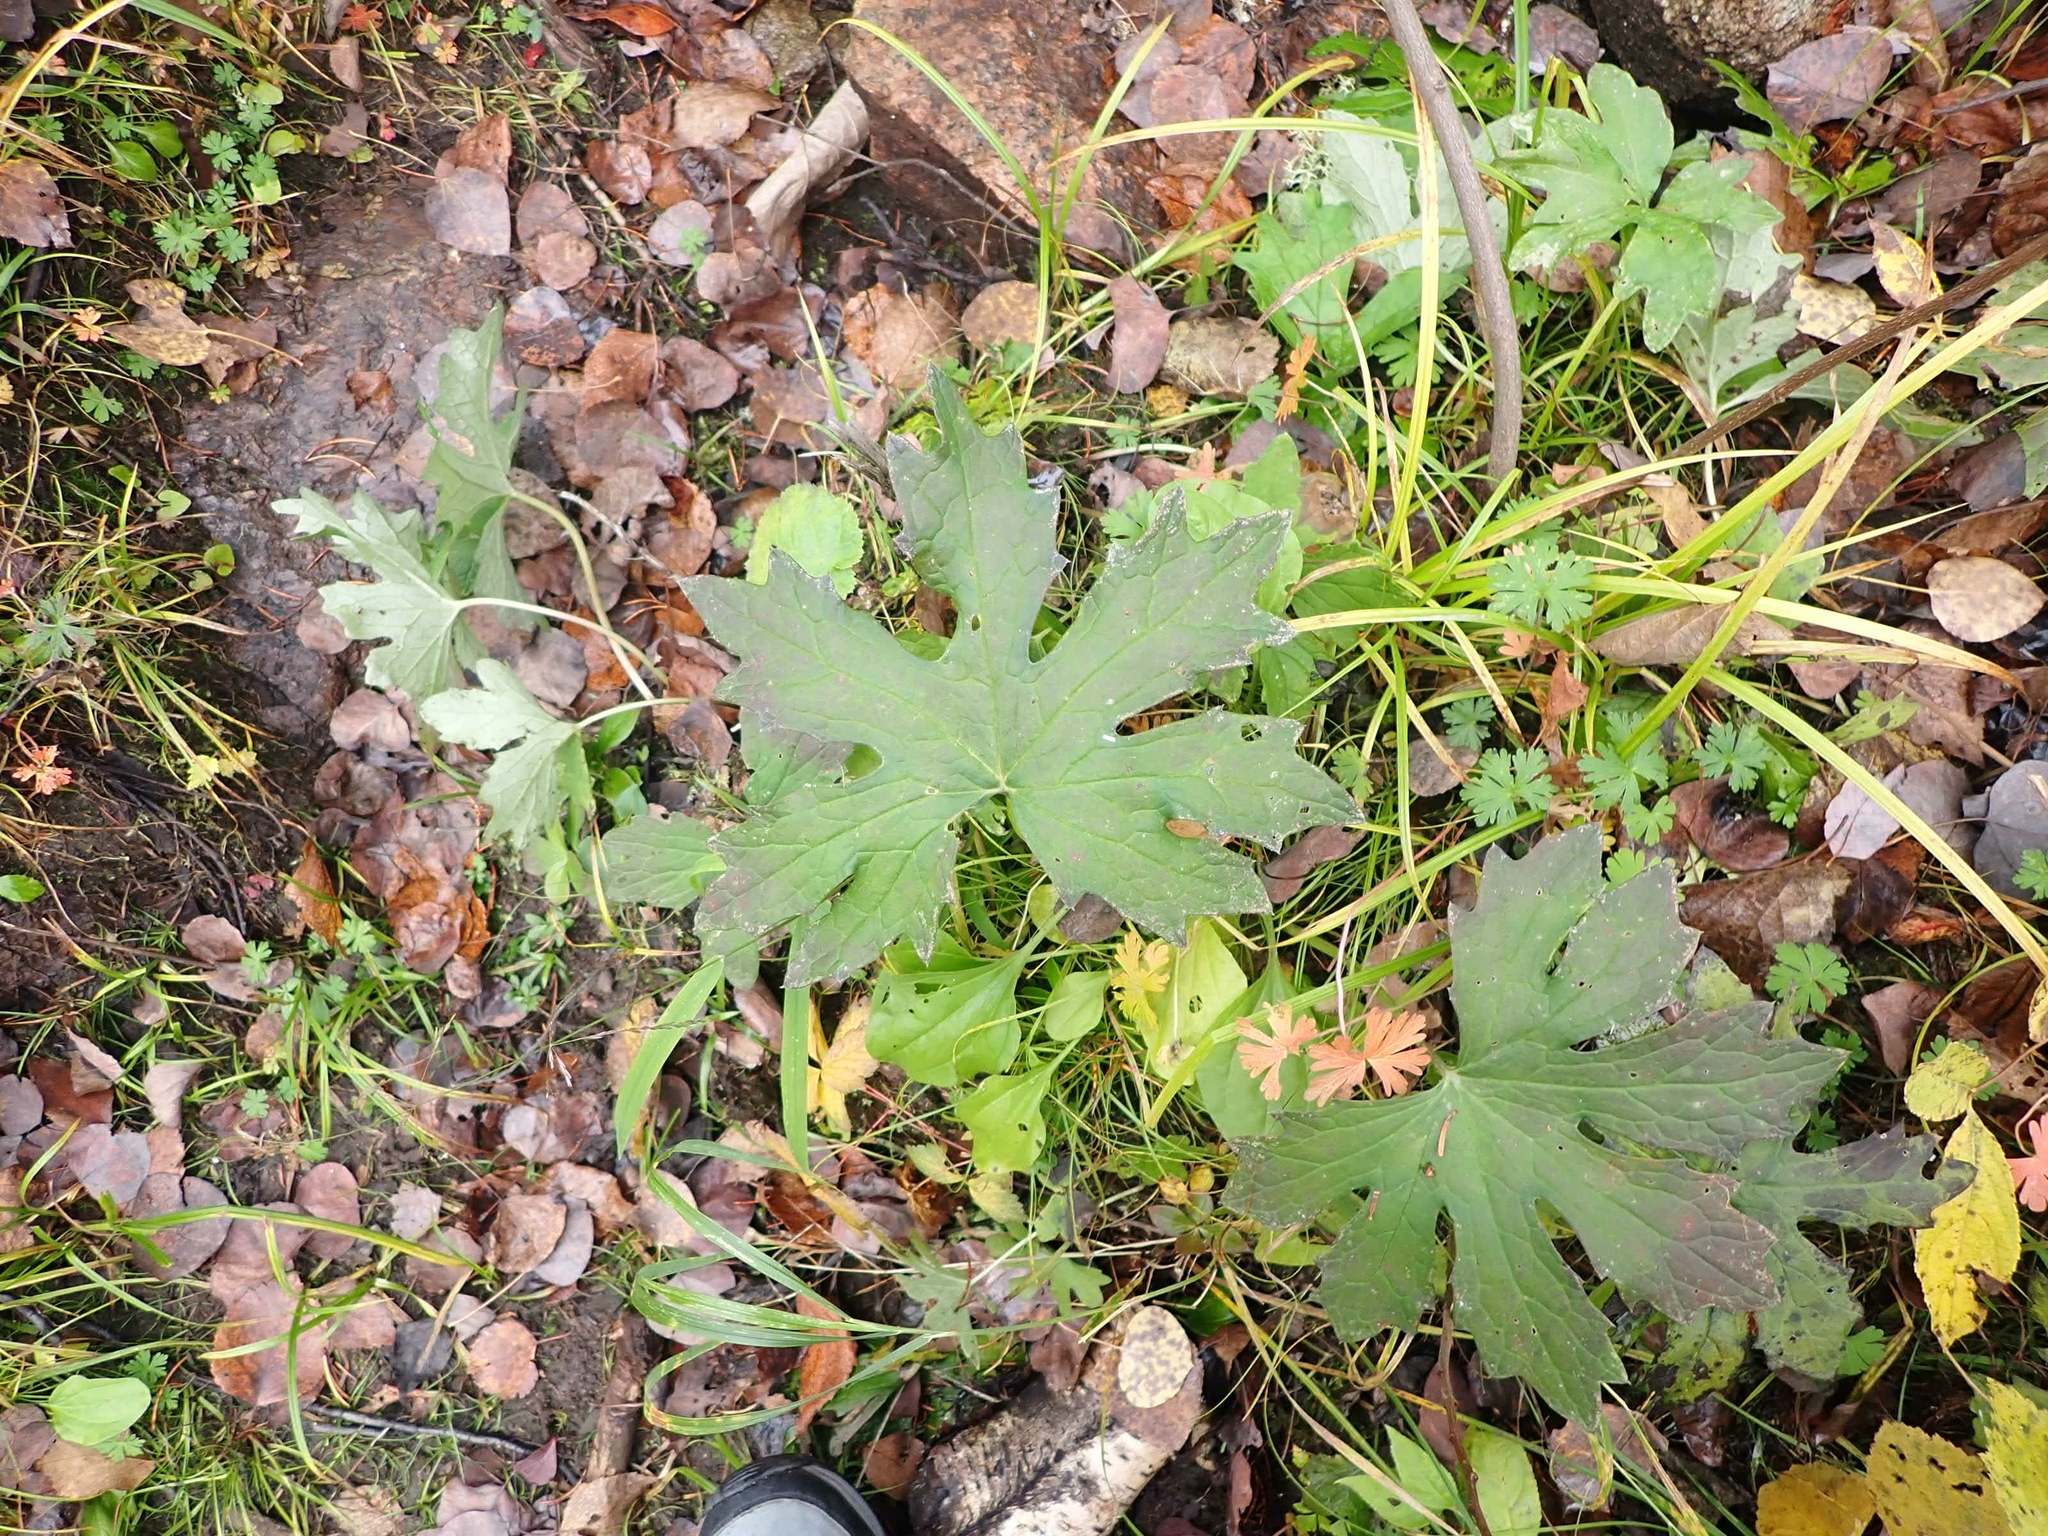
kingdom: Plantae
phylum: Tracheophyta
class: Magnoliopsida
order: Asterales
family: Asteraceae
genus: Petasites
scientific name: Petasites frigidus
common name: Arctic butterbur
